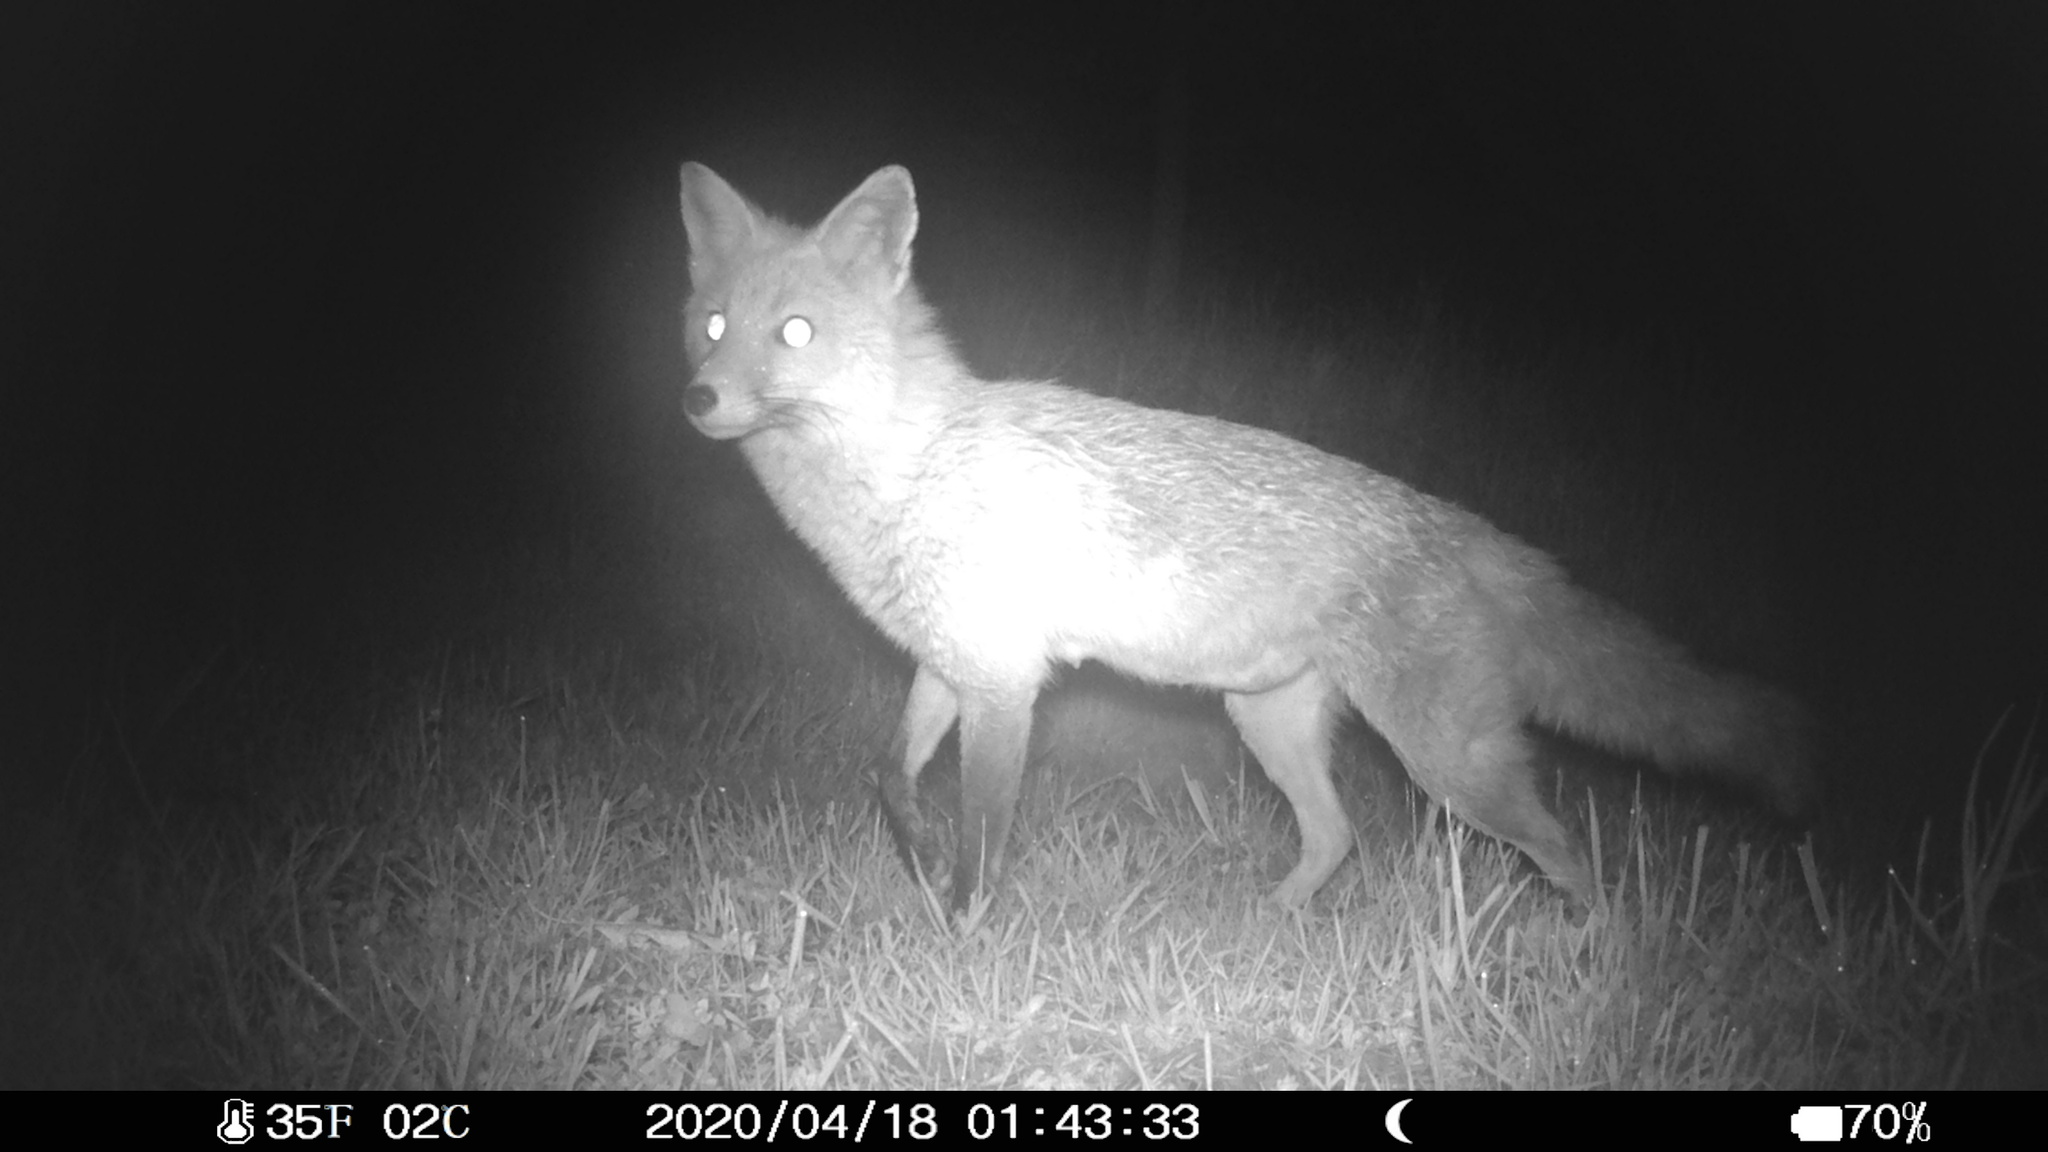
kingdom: Animalia
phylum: Chordata
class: Mammalia
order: Carnivora
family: Canidae
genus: Vulpes
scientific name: Vulpes vulpes
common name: Red fox
